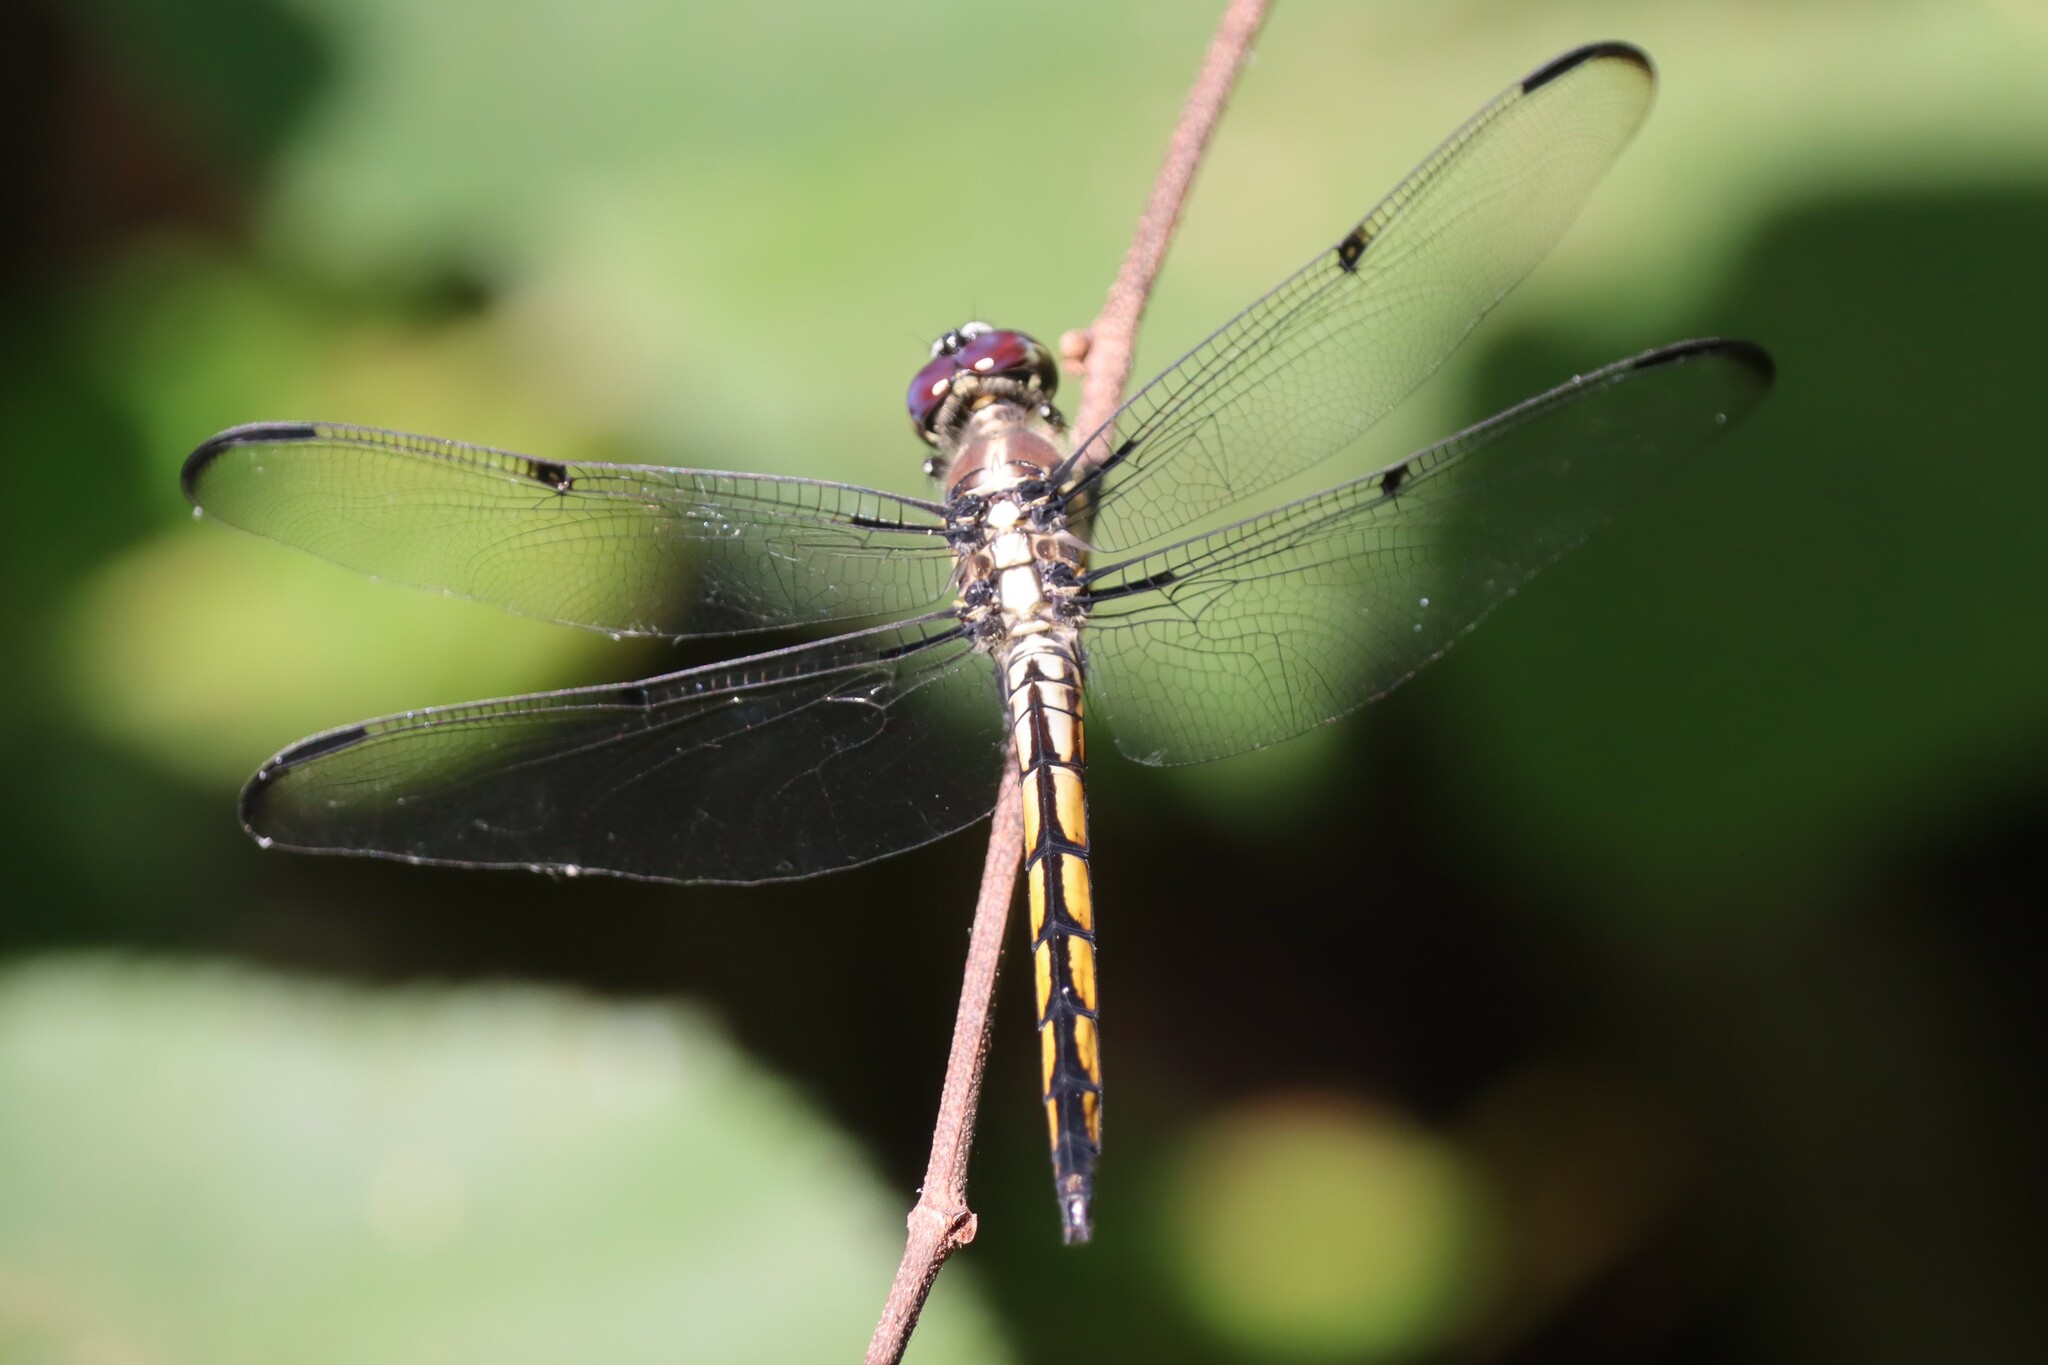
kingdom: Animalia
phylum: Arthropoda
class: Insecta
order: Odonata
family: Libellulidae
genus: Libellula
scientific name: Libellula vibrans
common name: Great blue skimmer
